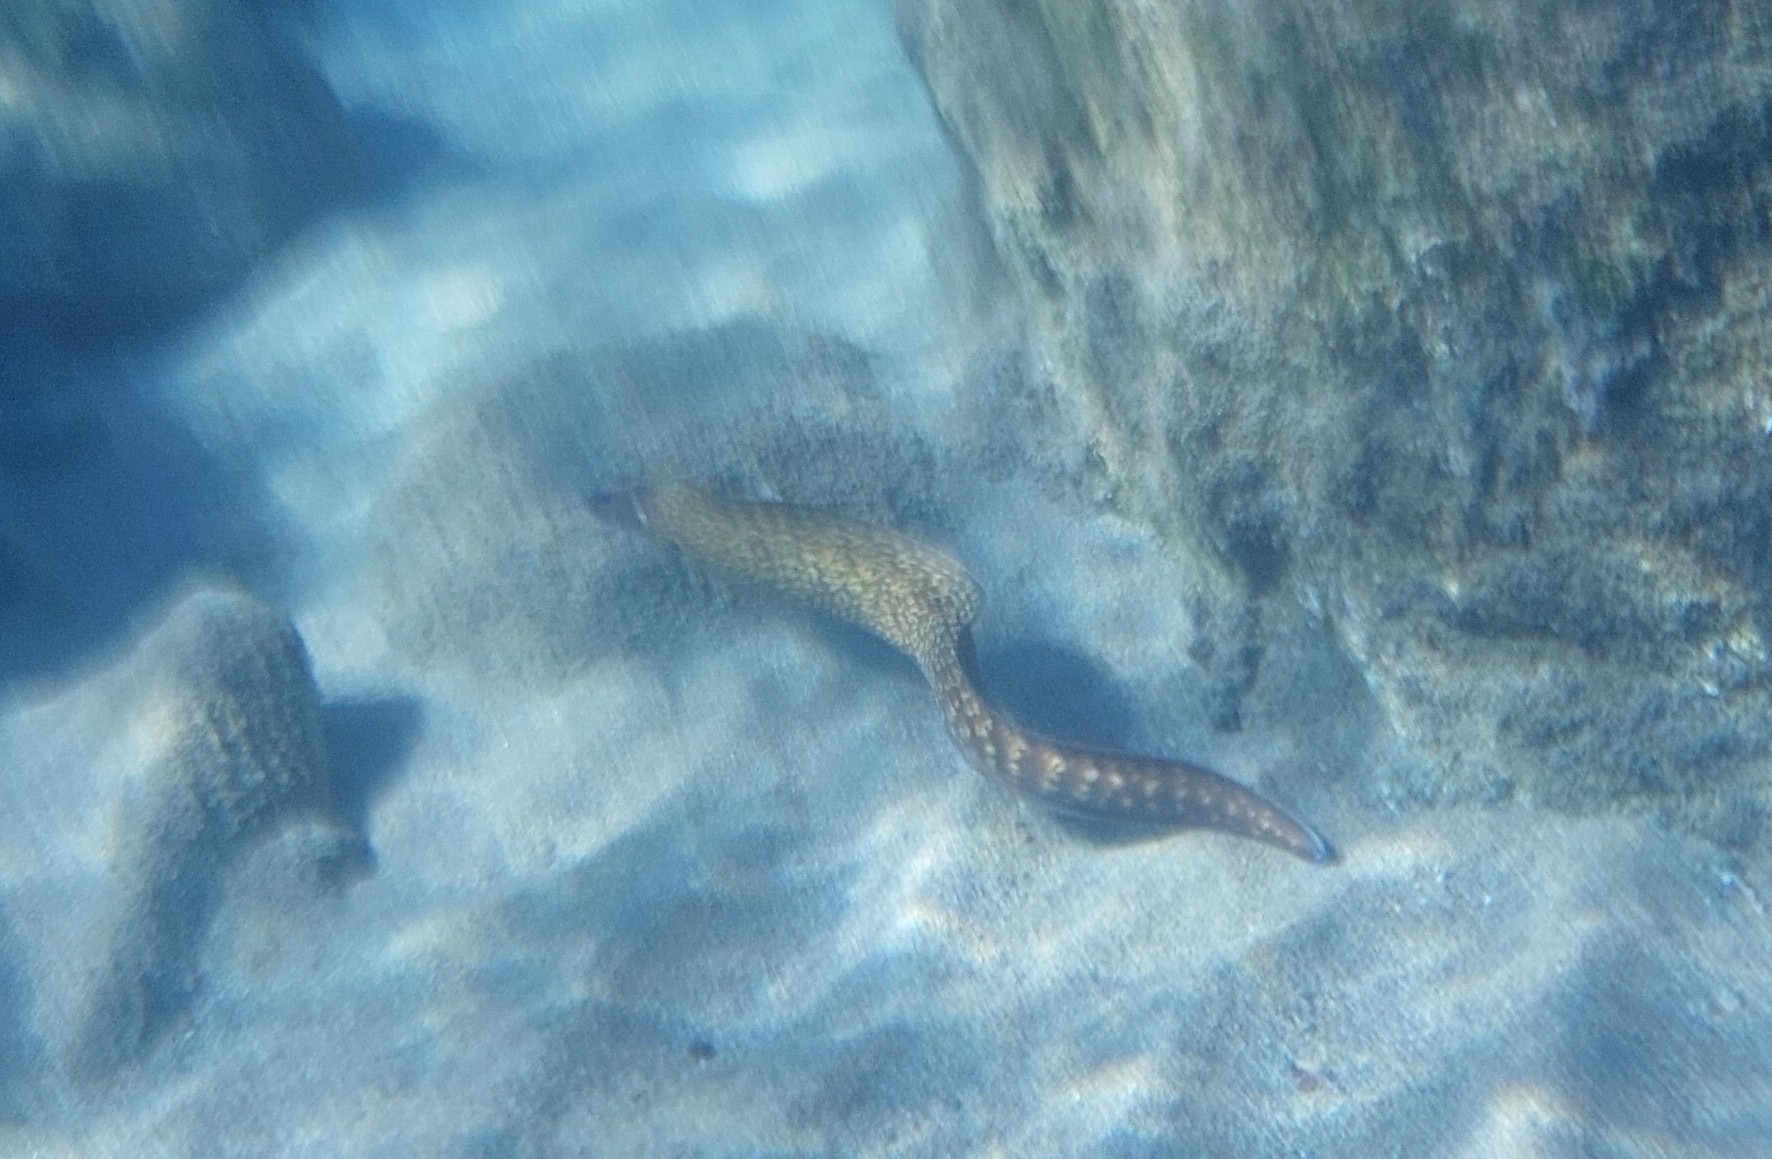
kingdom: Animalia
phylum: Chordata
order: Anguilliformes
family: Muraenidae
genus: Muraena
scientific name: Muraena helena
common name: Mediterranean moray
